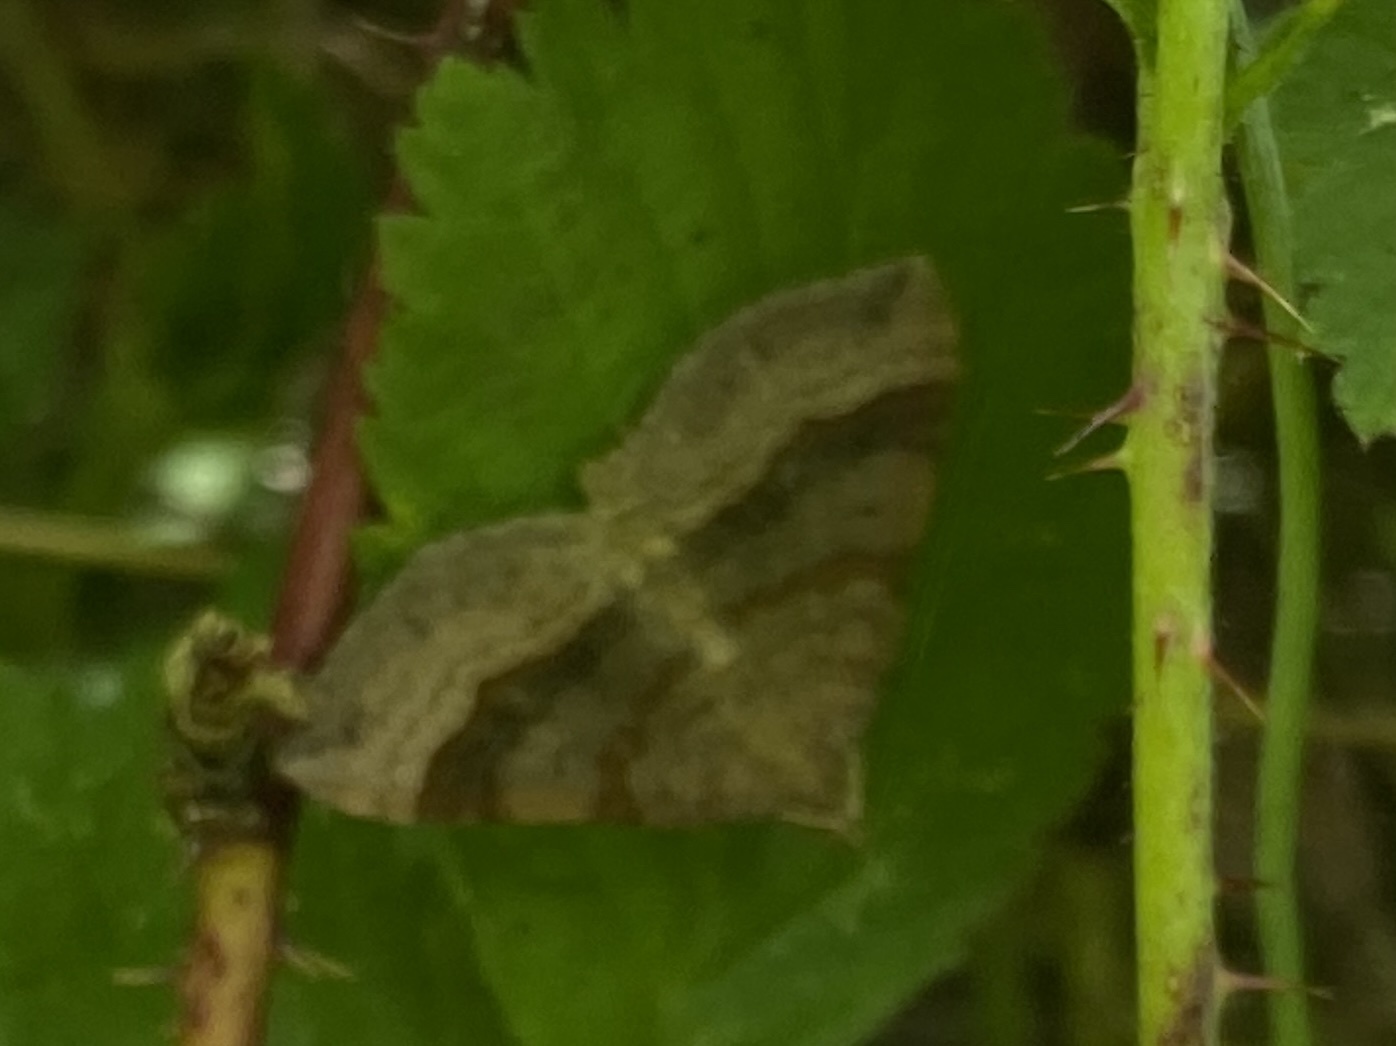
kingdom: Animalia
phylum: Arthropoda
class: Insecta
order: Lepidoptera
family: Geometridae
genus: Scotopteryx
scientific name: Scotopteryx chenopodiata
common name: Shaded broad-bar
